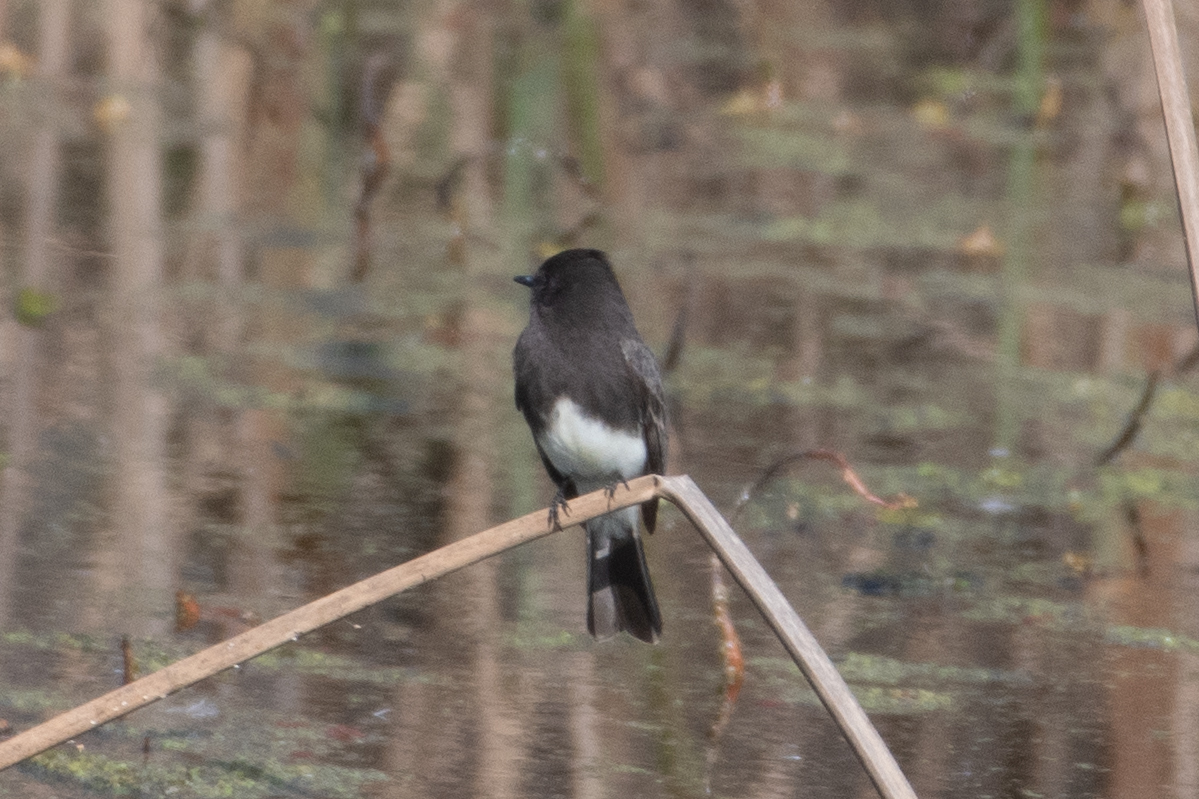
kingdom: Animalia
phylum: Chordata
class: Aves
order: Passeriformes
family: Tyrannidae
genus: Sayornis
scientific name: Sayornis nigricans
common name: Black phoebe
